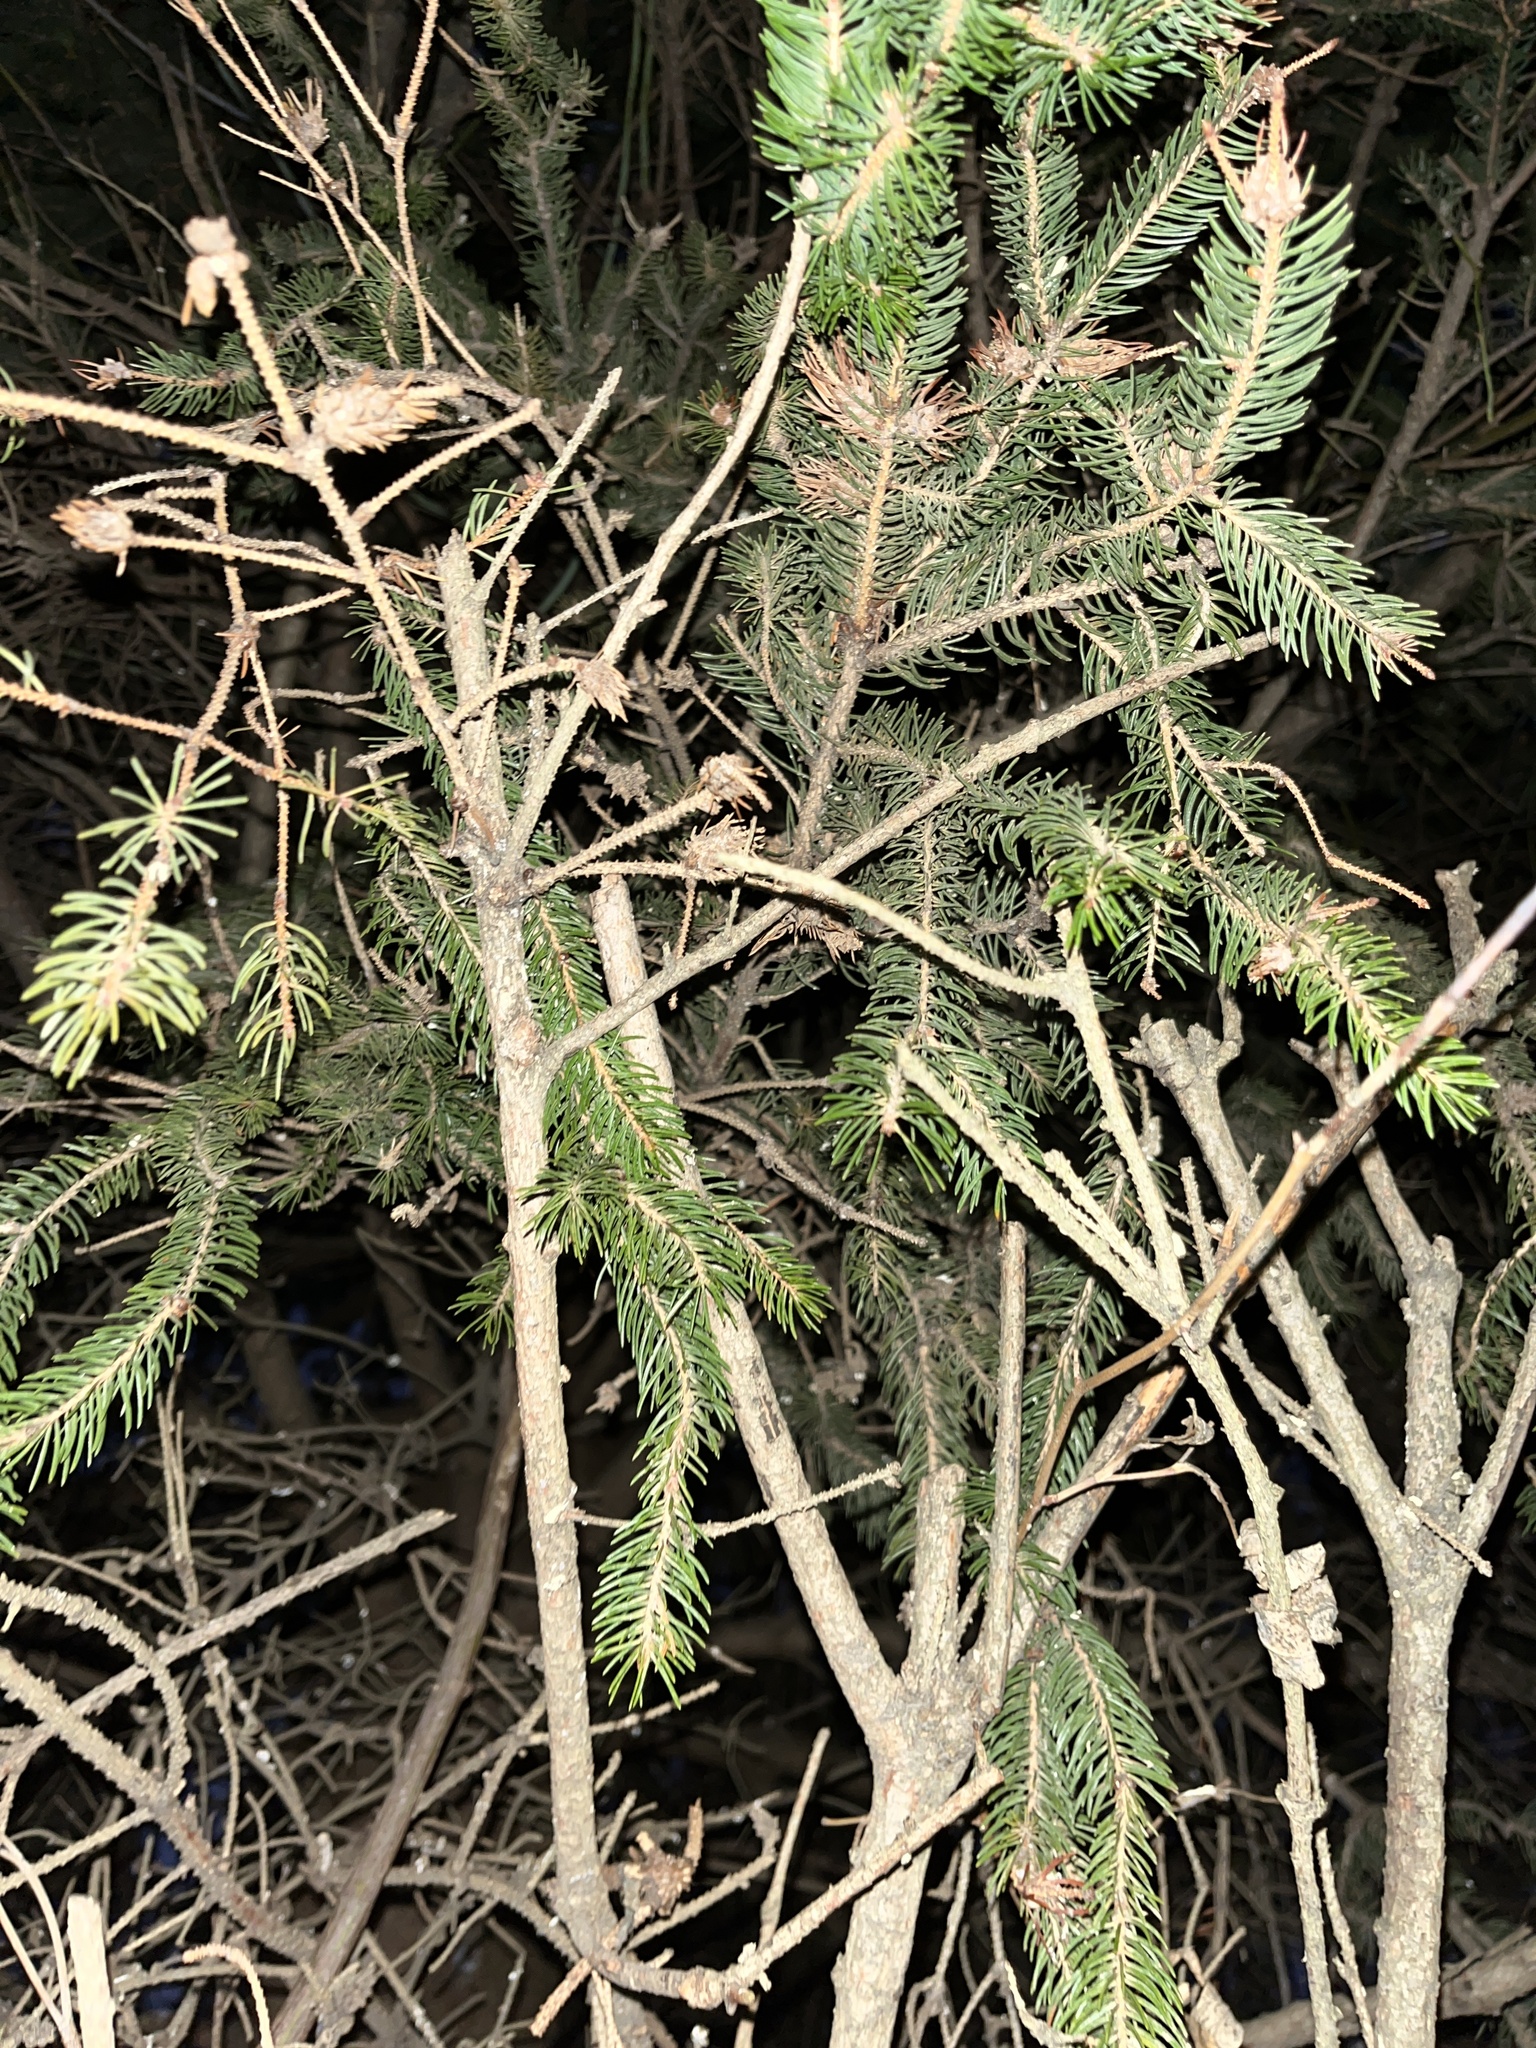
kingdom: Plantae
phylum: Tracheophyta
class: Pinopsida
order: Pinales
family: Pinaceae
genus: Picea
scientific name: Picea abies
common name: Norway spruce
